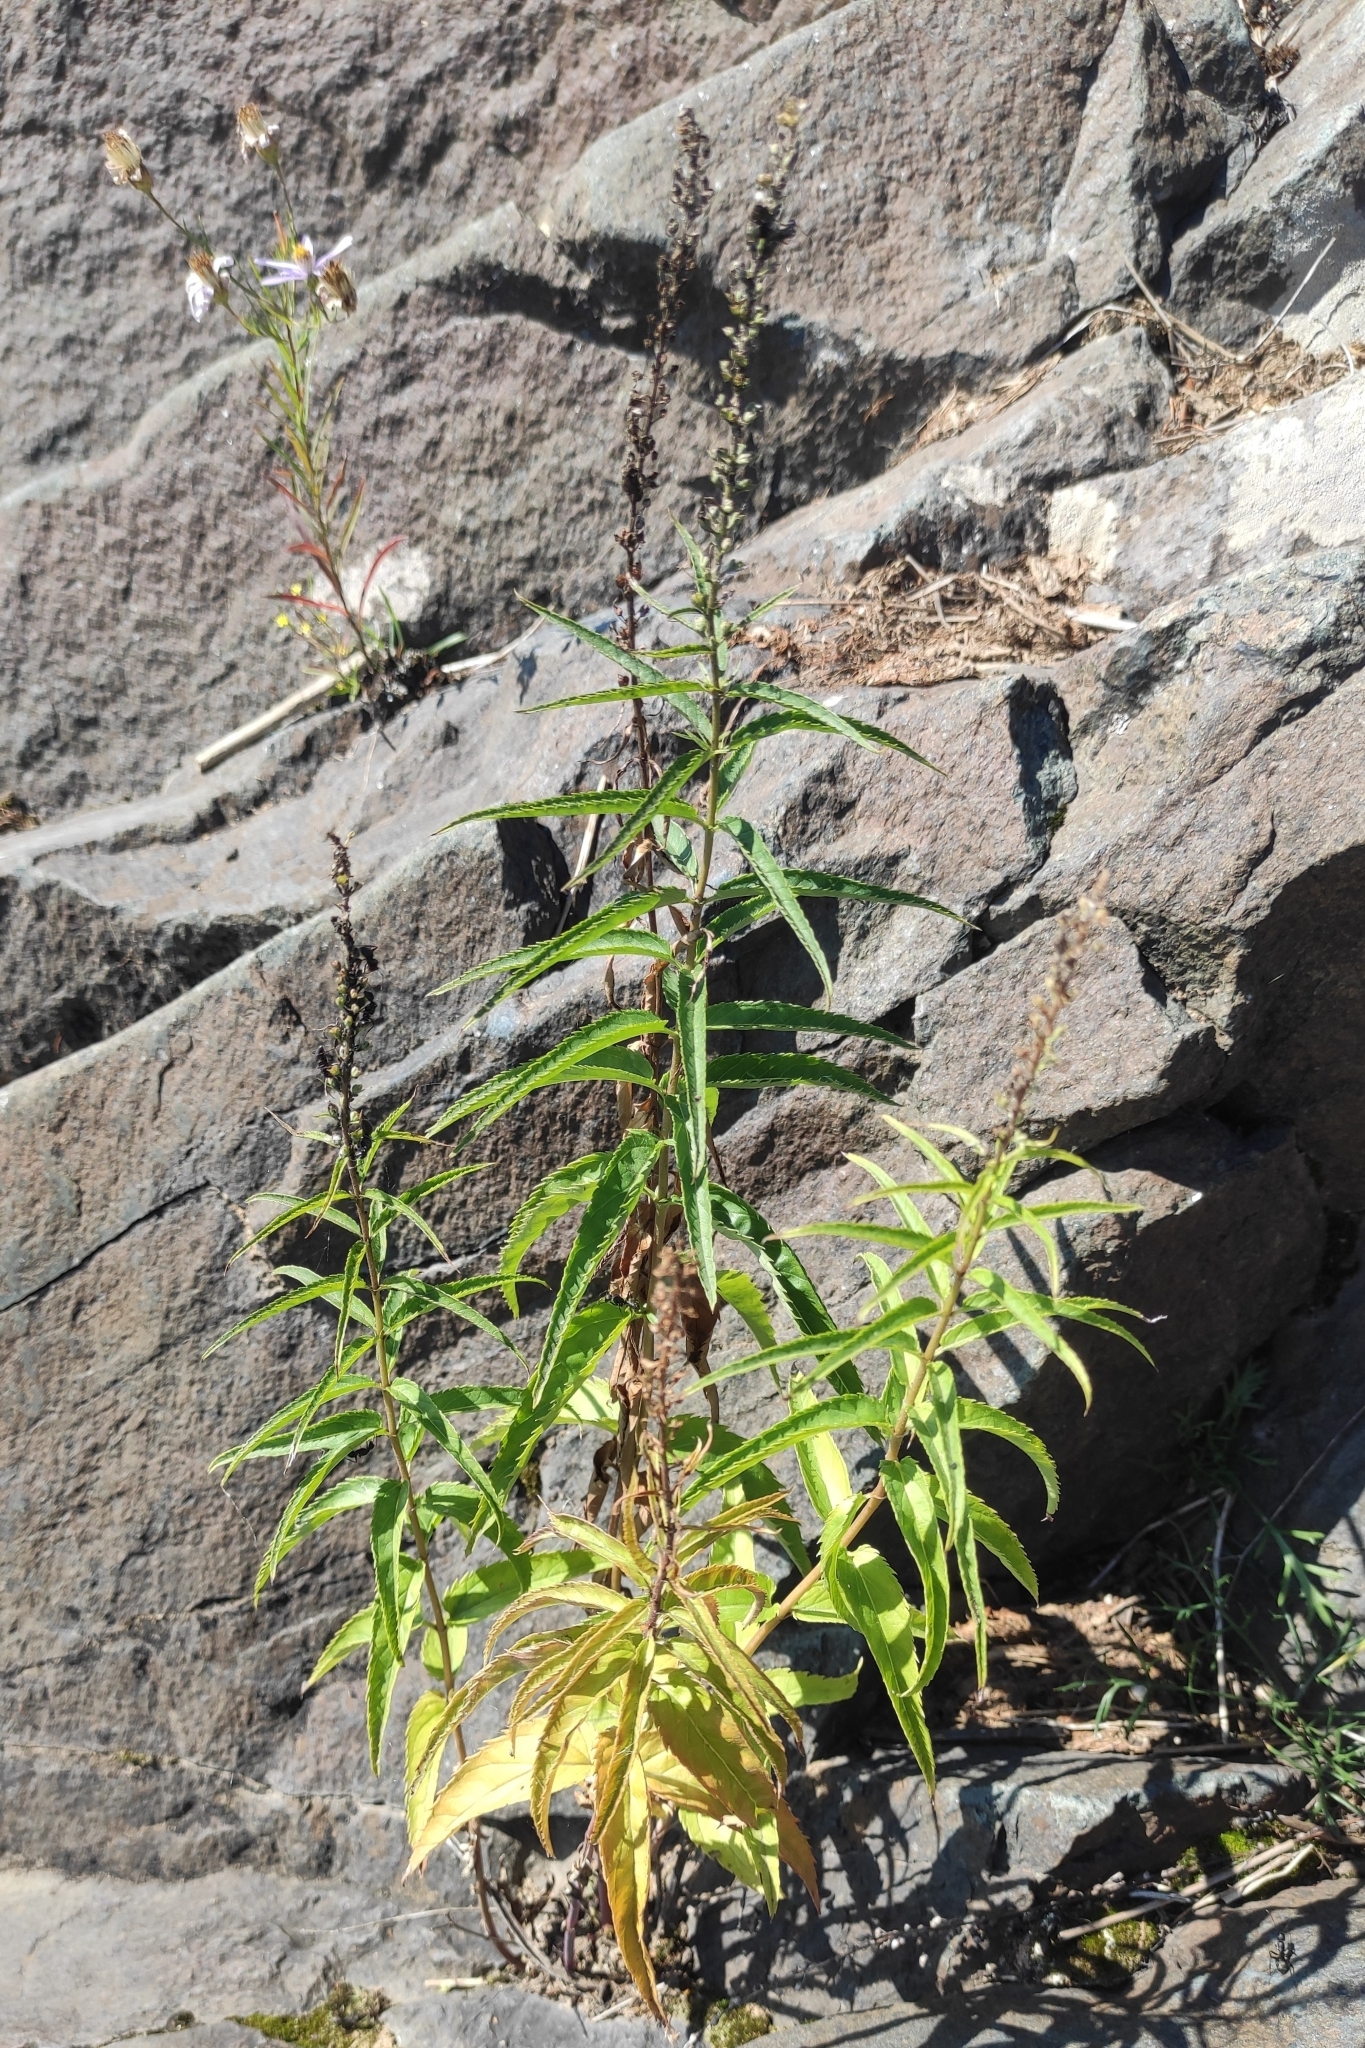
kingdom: Plantae
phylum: Tracheophyta
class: Magnoliopsida
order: Lamiales
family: Plantaginaceae
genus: Veronica
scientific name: Veronica longifolia
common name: Garden speedwell
